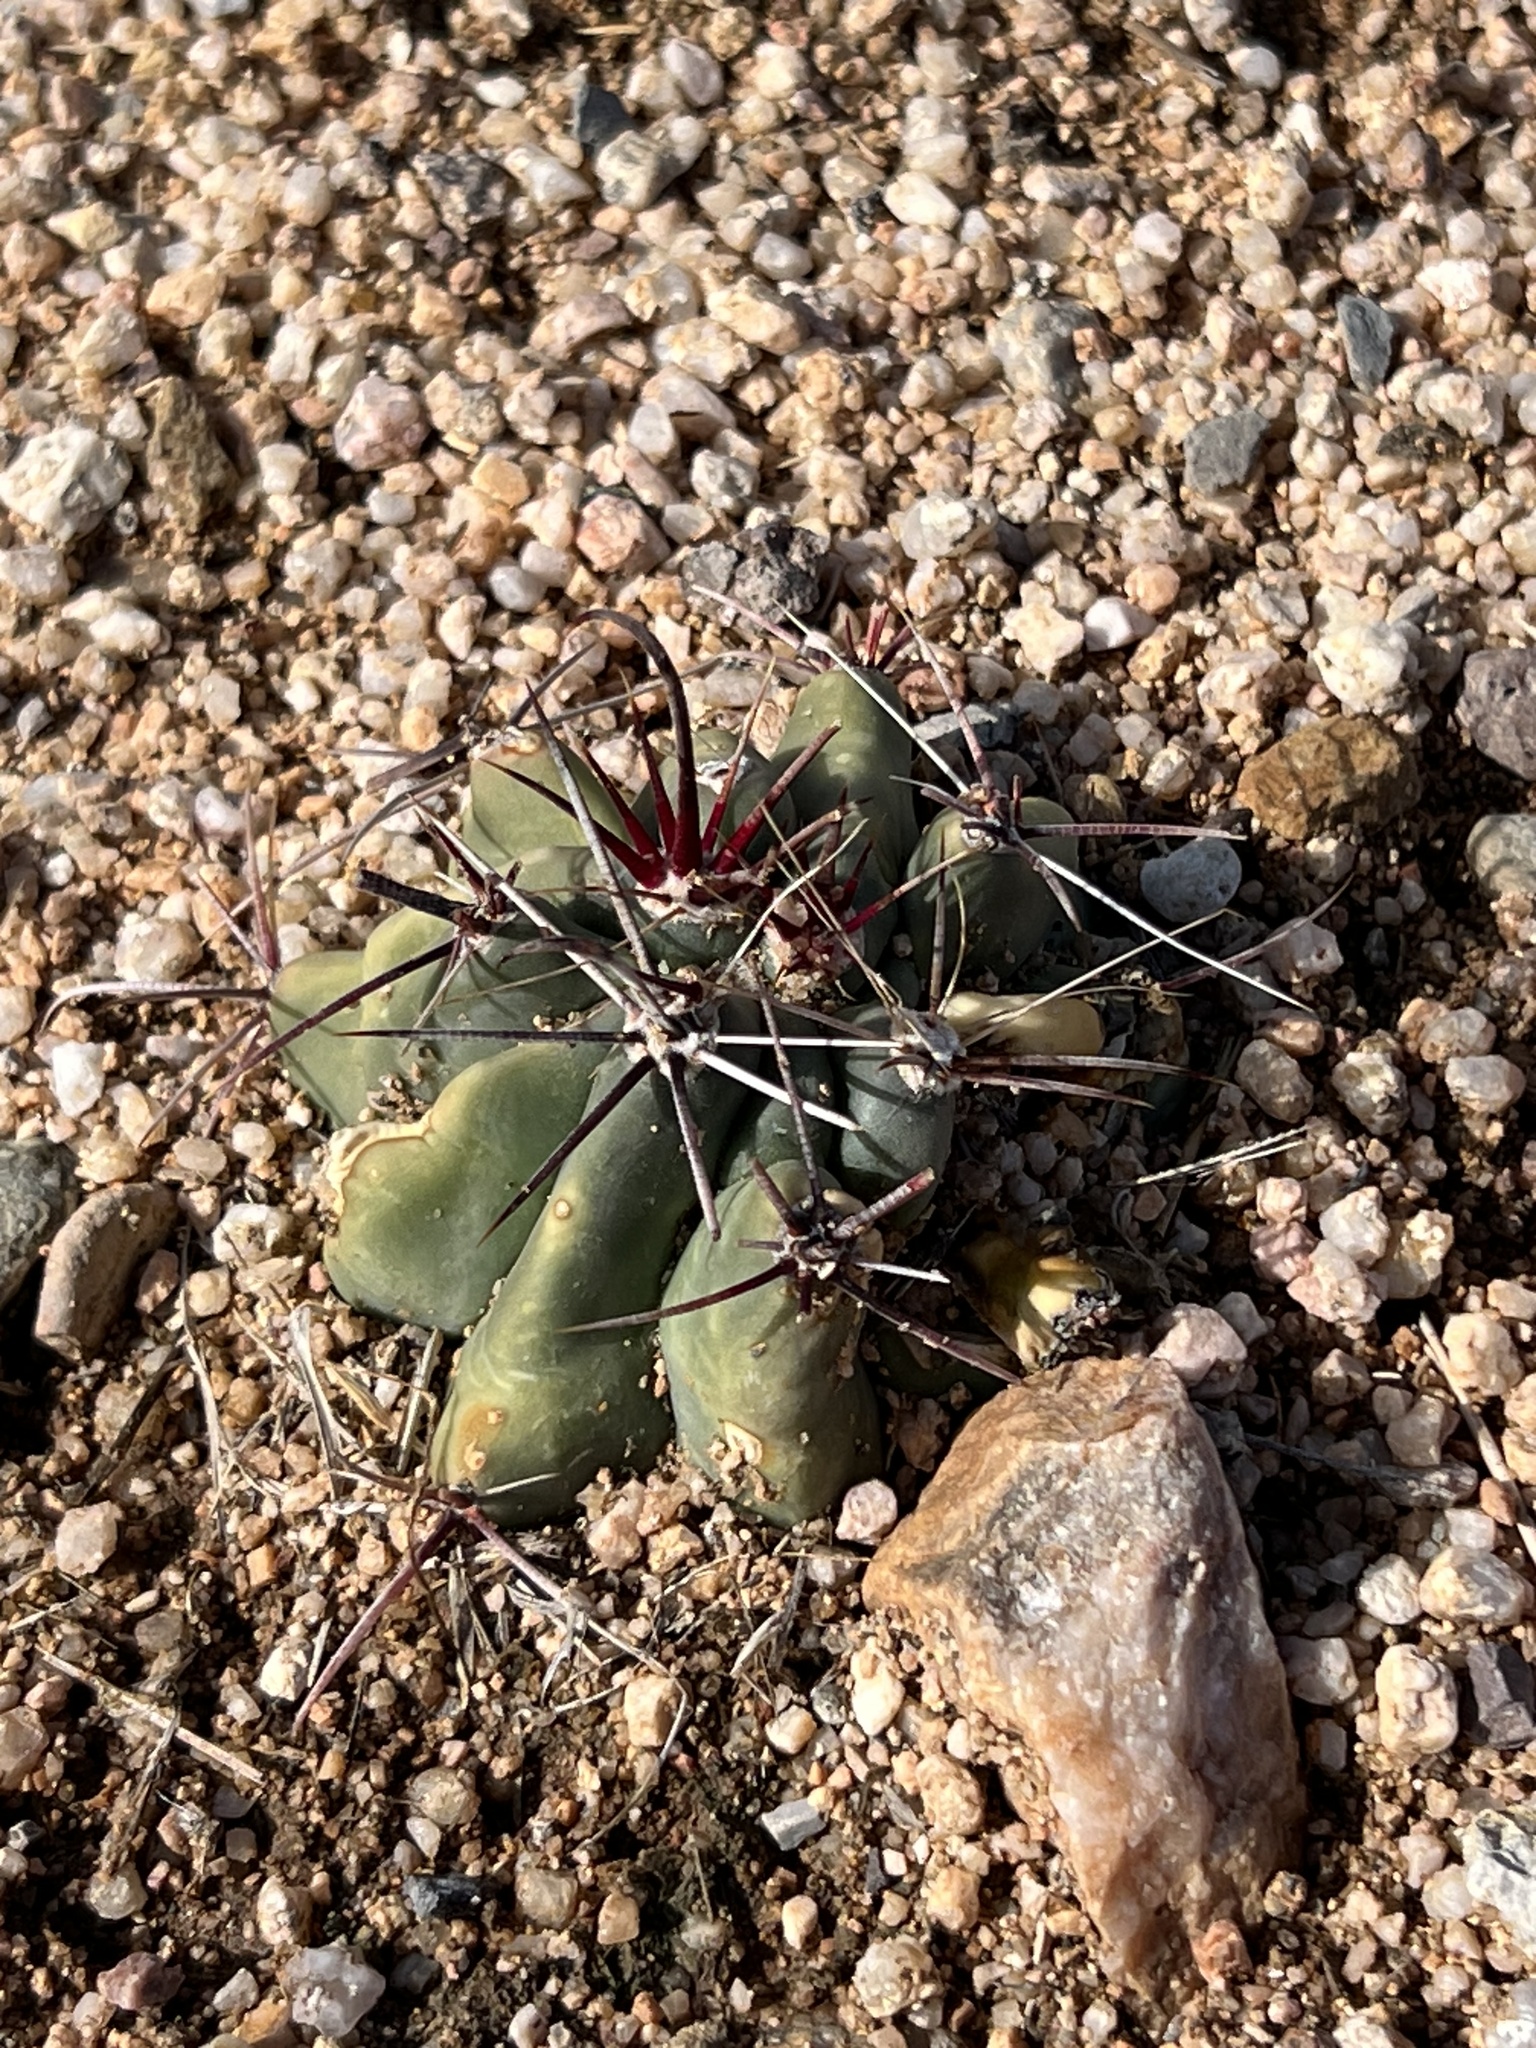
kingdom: Plantae
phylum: Tracheophyta
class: Magnoliopsida
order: Caryophyllales
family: Cactaceae
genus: Ferocactus
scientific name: Ferocactus wislizeni
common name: Candy barrel cactus
